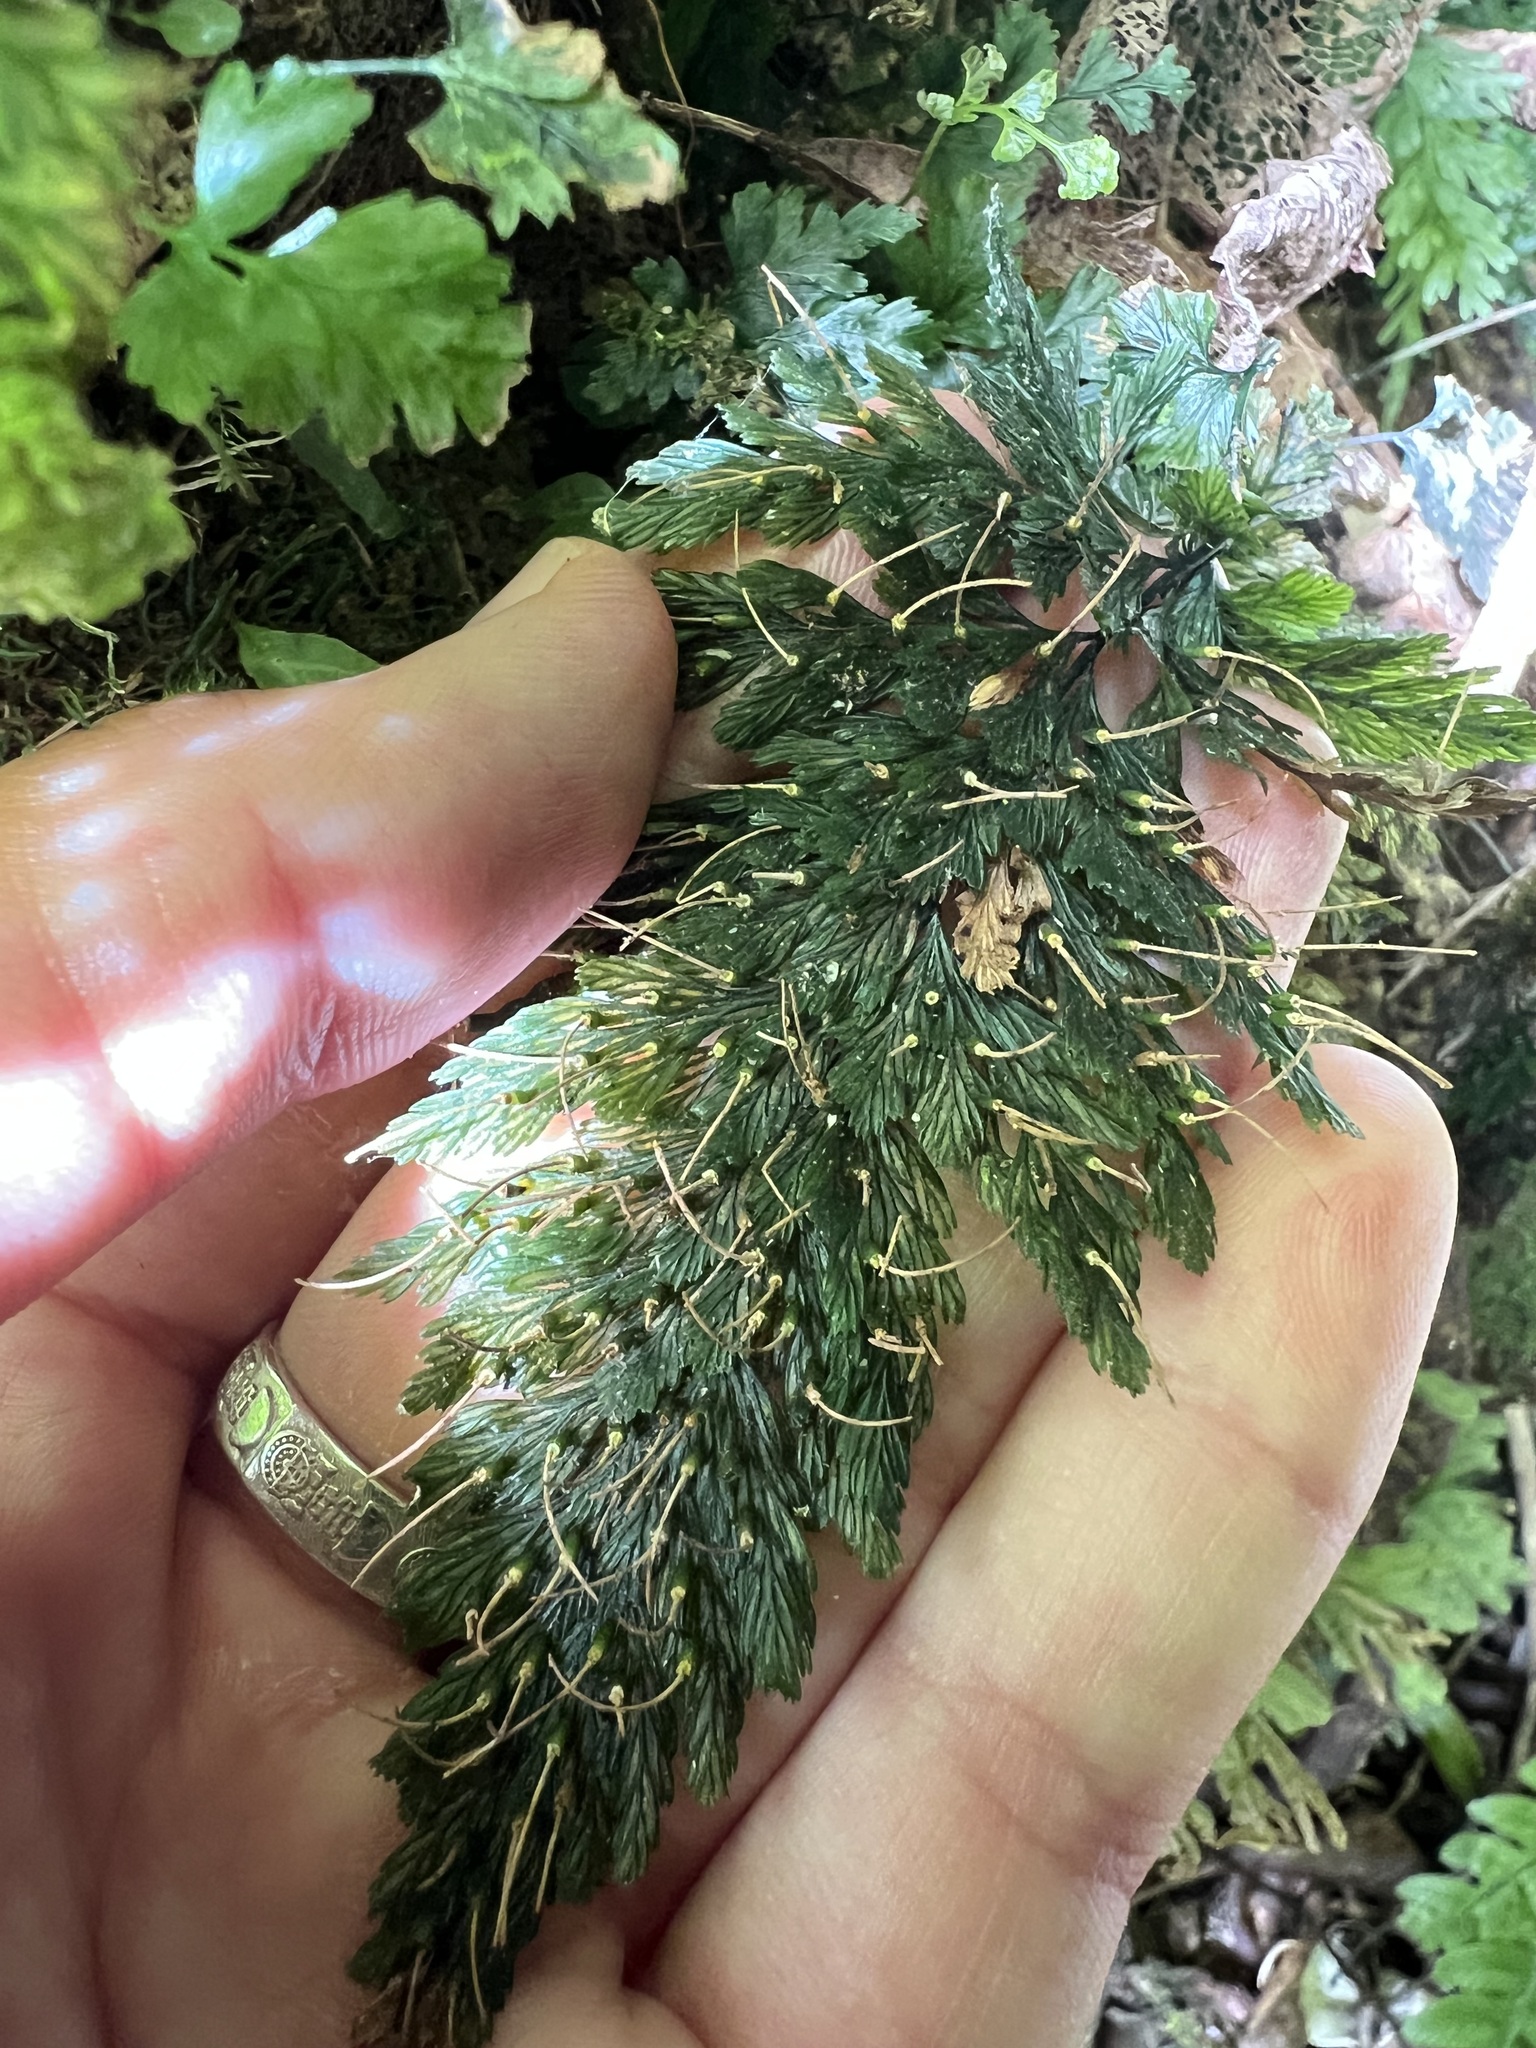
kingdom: Plantae
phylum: Tracheophyta
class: Polypodiopsida
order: Hymenophyllales
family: Hymenophyllaceae
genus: Abrodictyum
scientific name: Abrodictyum elongatum
